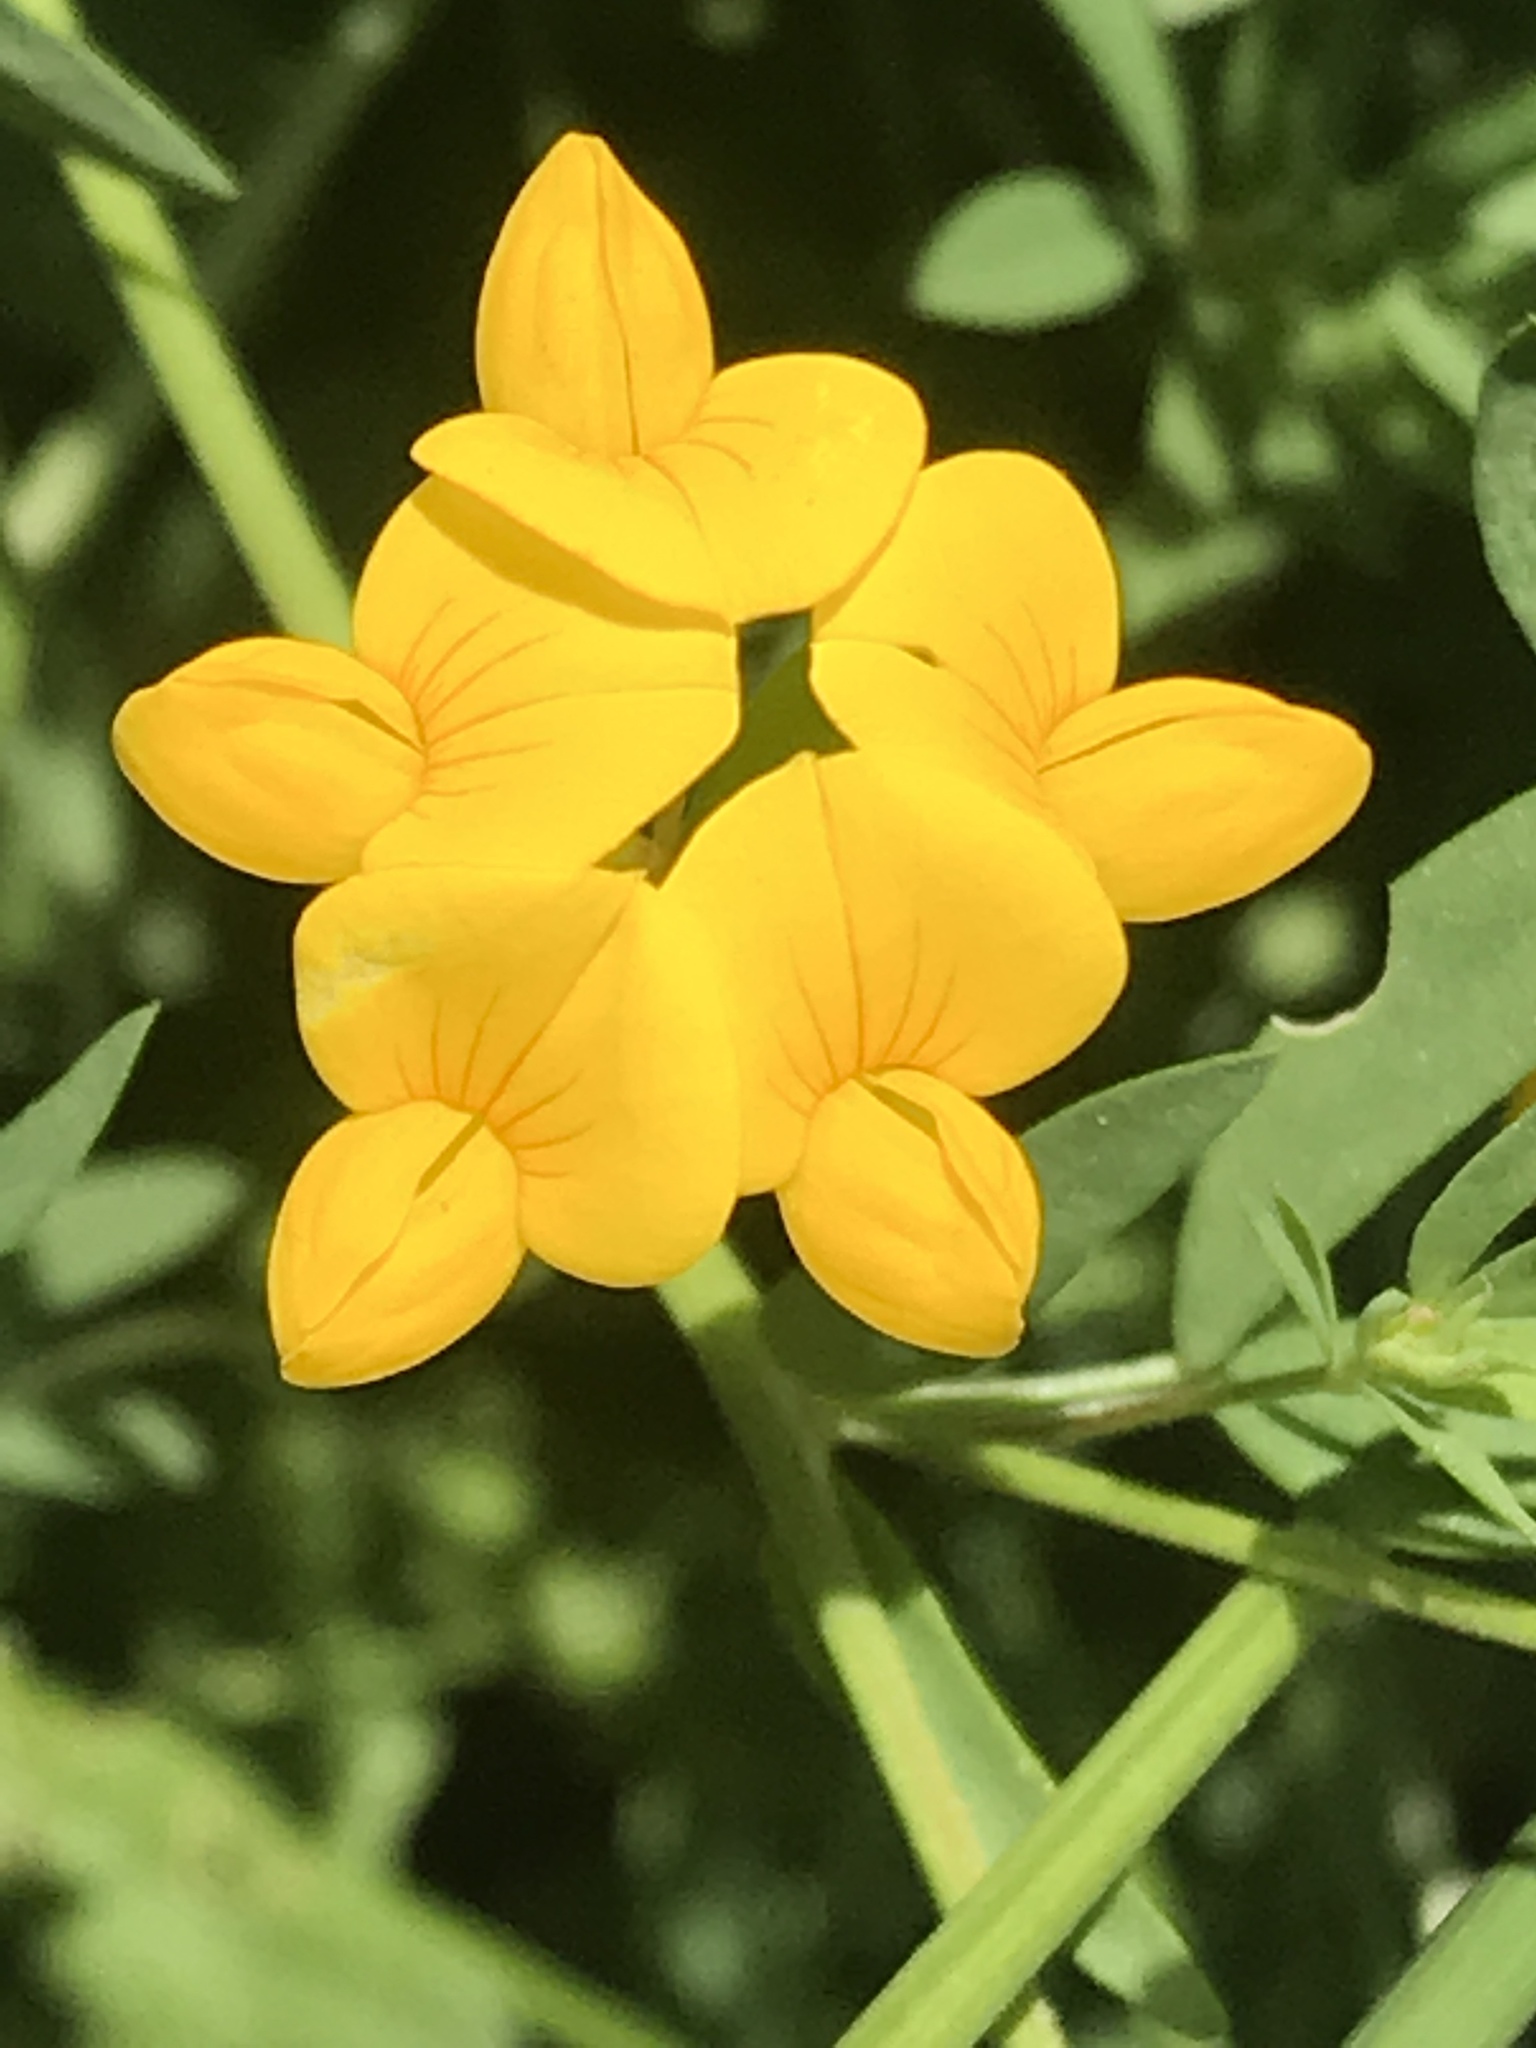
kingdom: Plantae
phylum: Tracheophyta
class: Magnoliopsida
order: Fabales
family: Fabaceae
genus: Lotus
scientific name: Lotus corniculatus
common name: Common bird's-foot-trefoil
